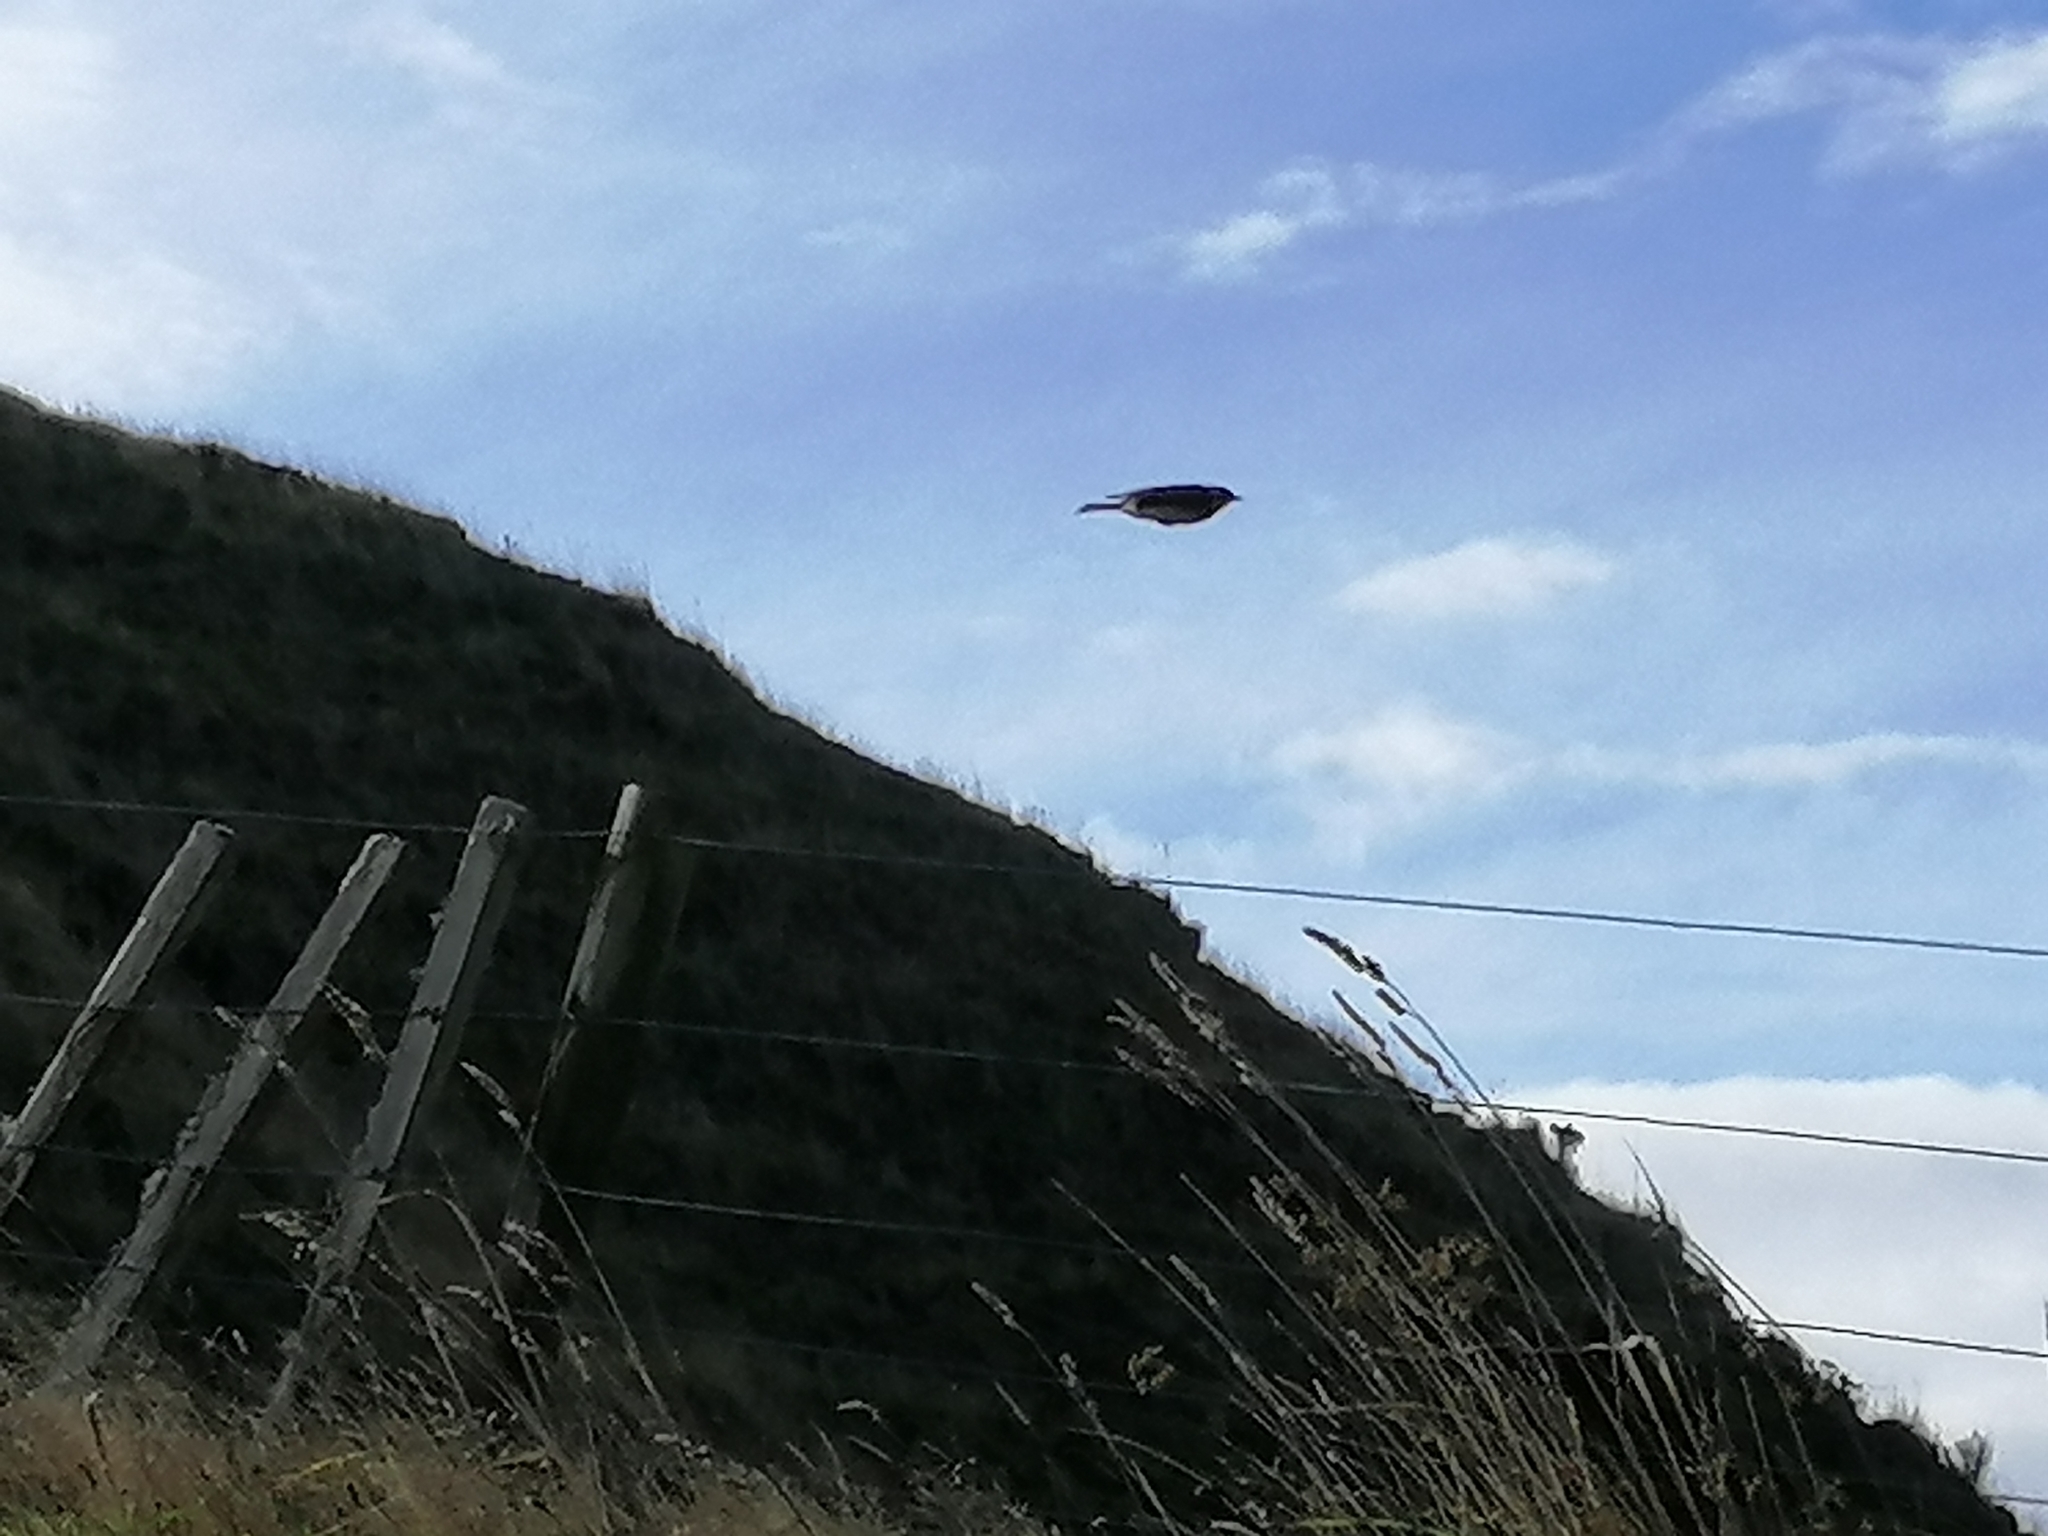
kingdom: Animalia
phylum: Chordata
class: Aves
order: Passeriformes
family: Motacillidae
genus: Anthus
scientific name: Anthus novaeseelandiae
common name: New zealand pipit
